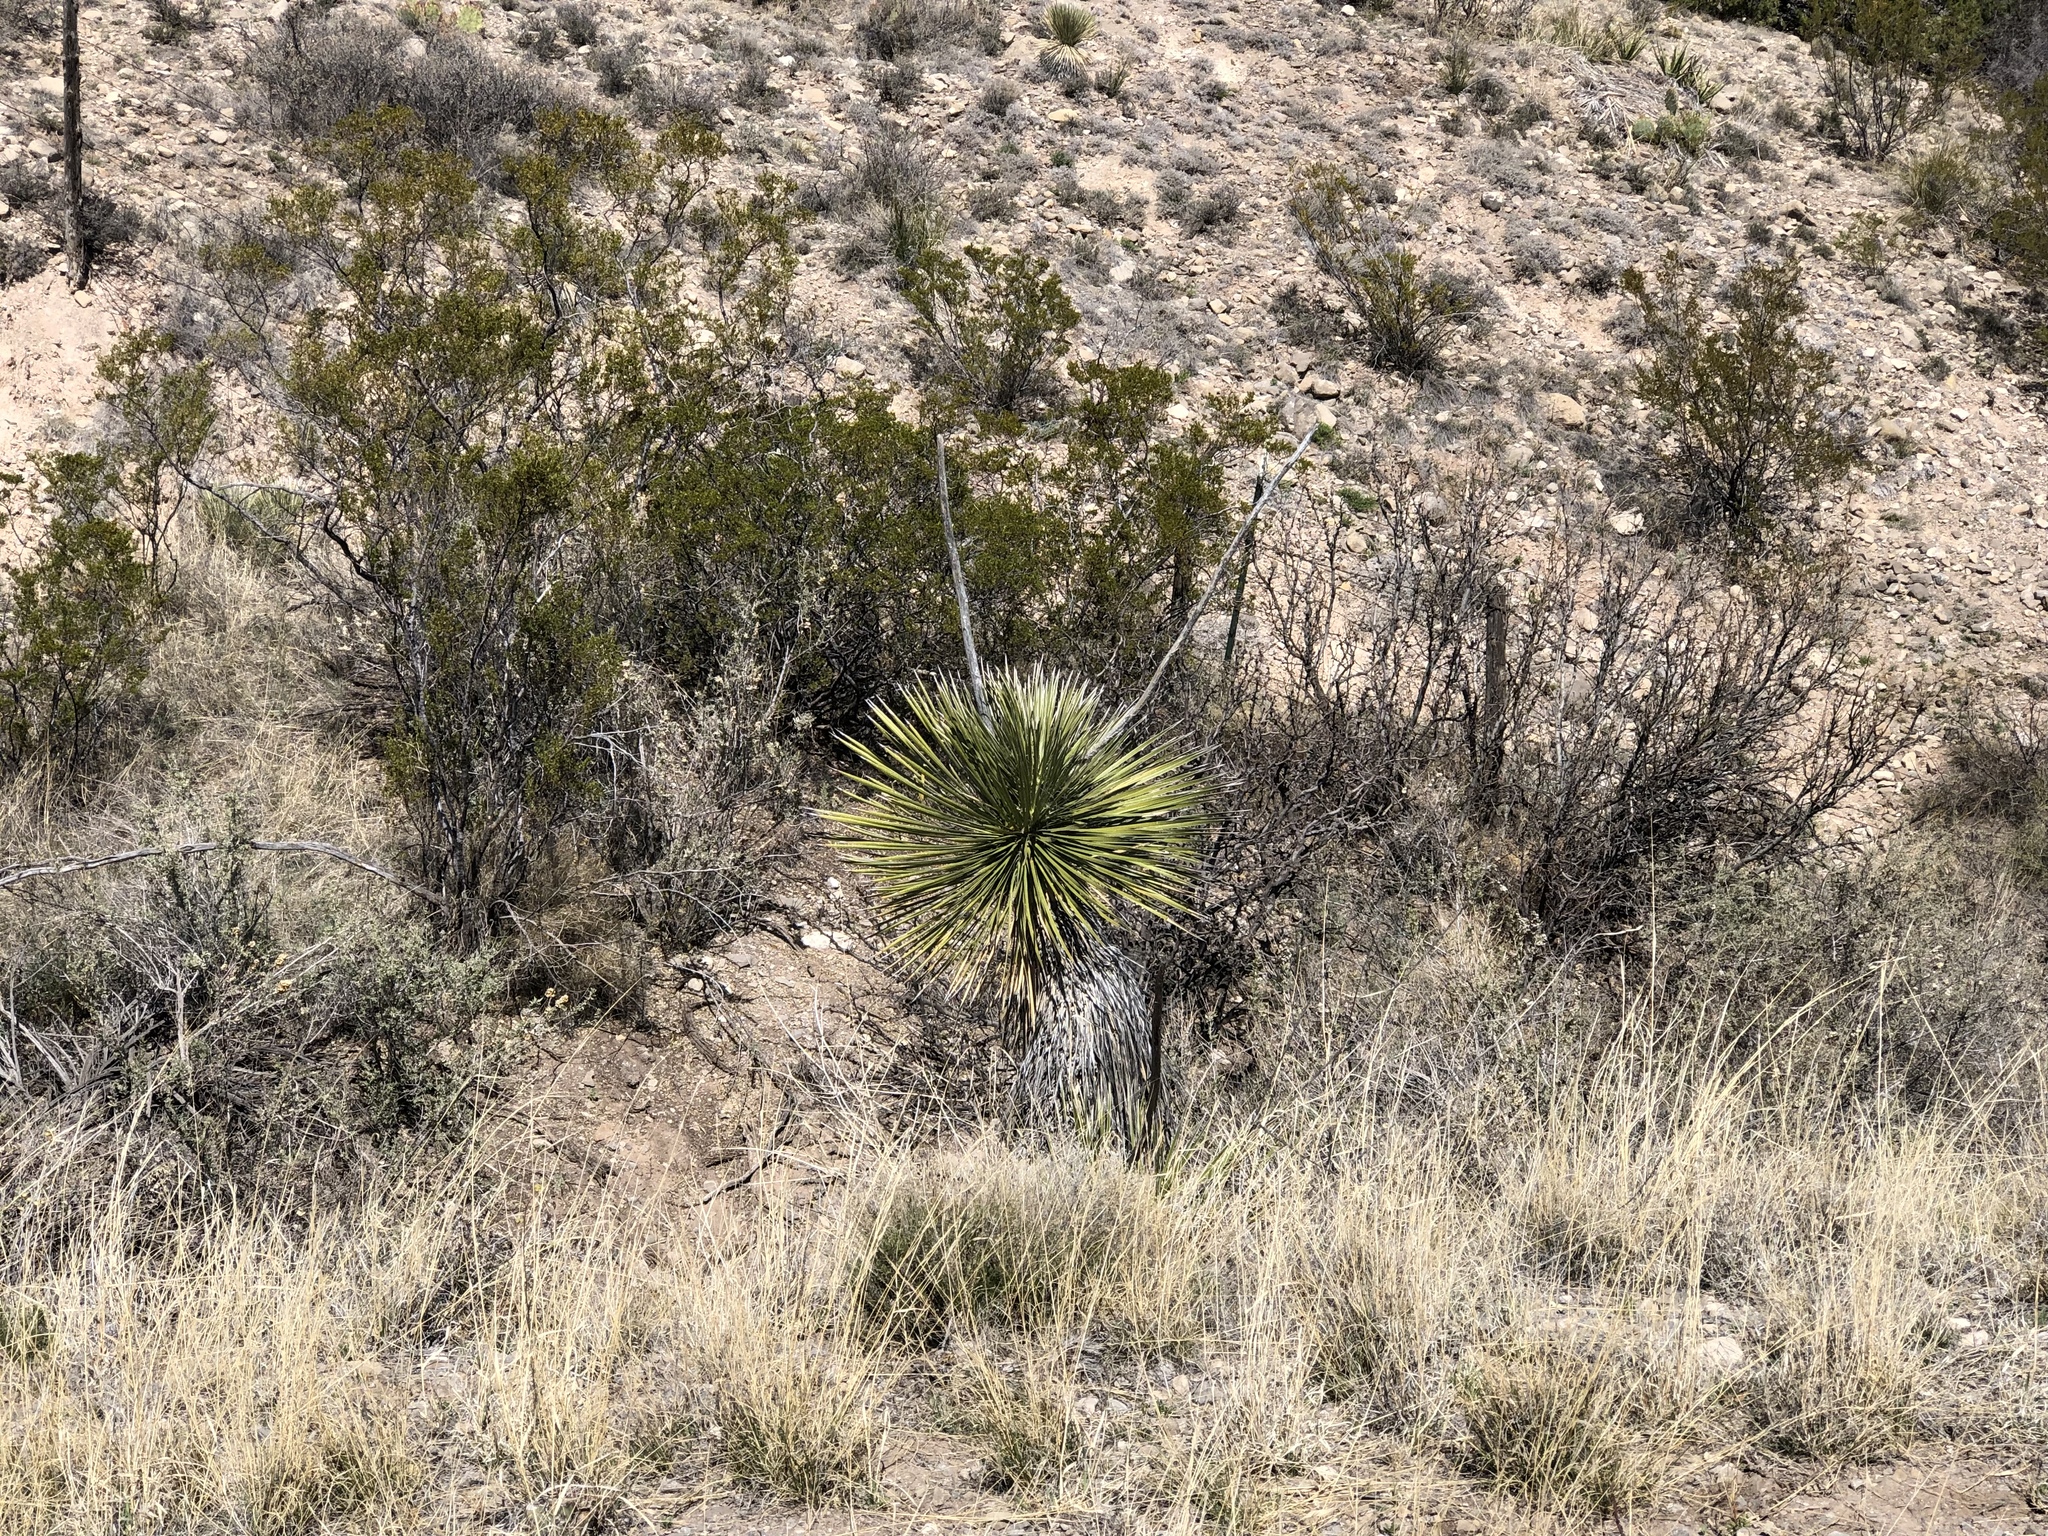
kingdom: Plantae
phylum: Tracheophyta
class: Liliopsida
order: Asparagales
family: Asparagaceae
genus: Yucca
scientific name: Yucca elata
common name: Palmella
